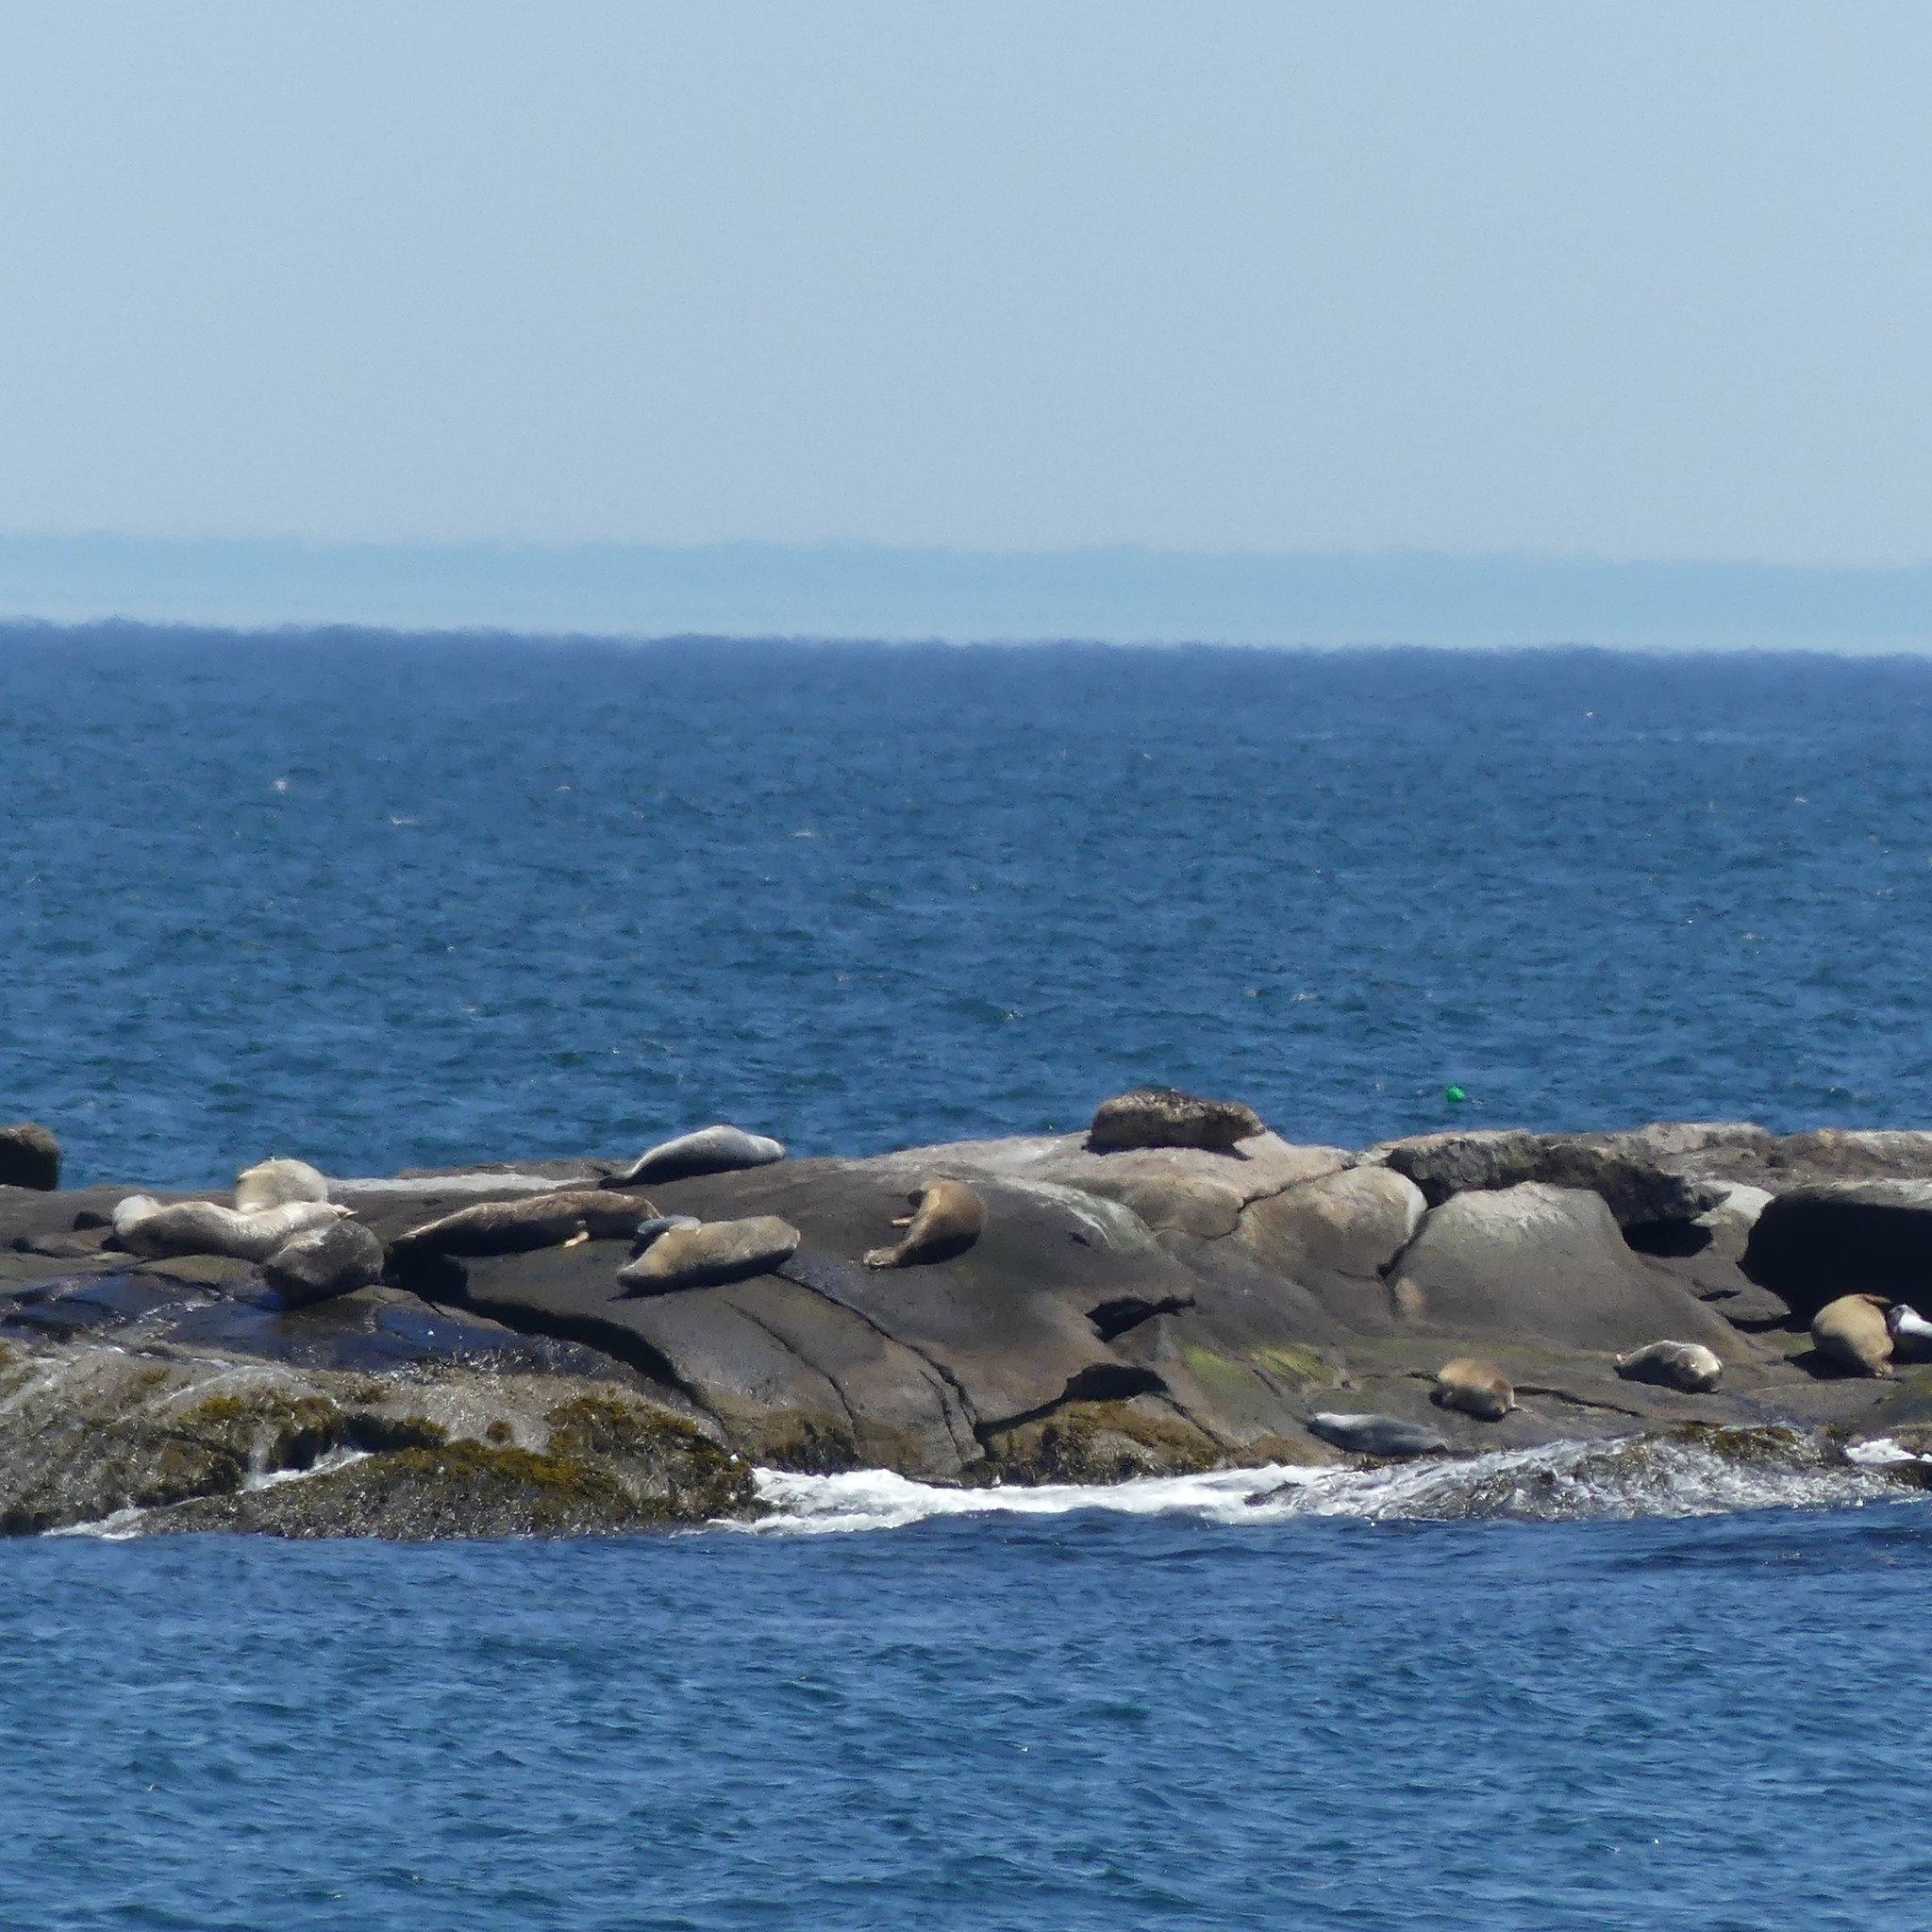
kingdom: Animalia
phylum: Chordata
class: Mammalia
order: Carnivora
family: Phocidae
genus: Phoca
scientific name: Phoca vitulina
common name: Harbor seal
